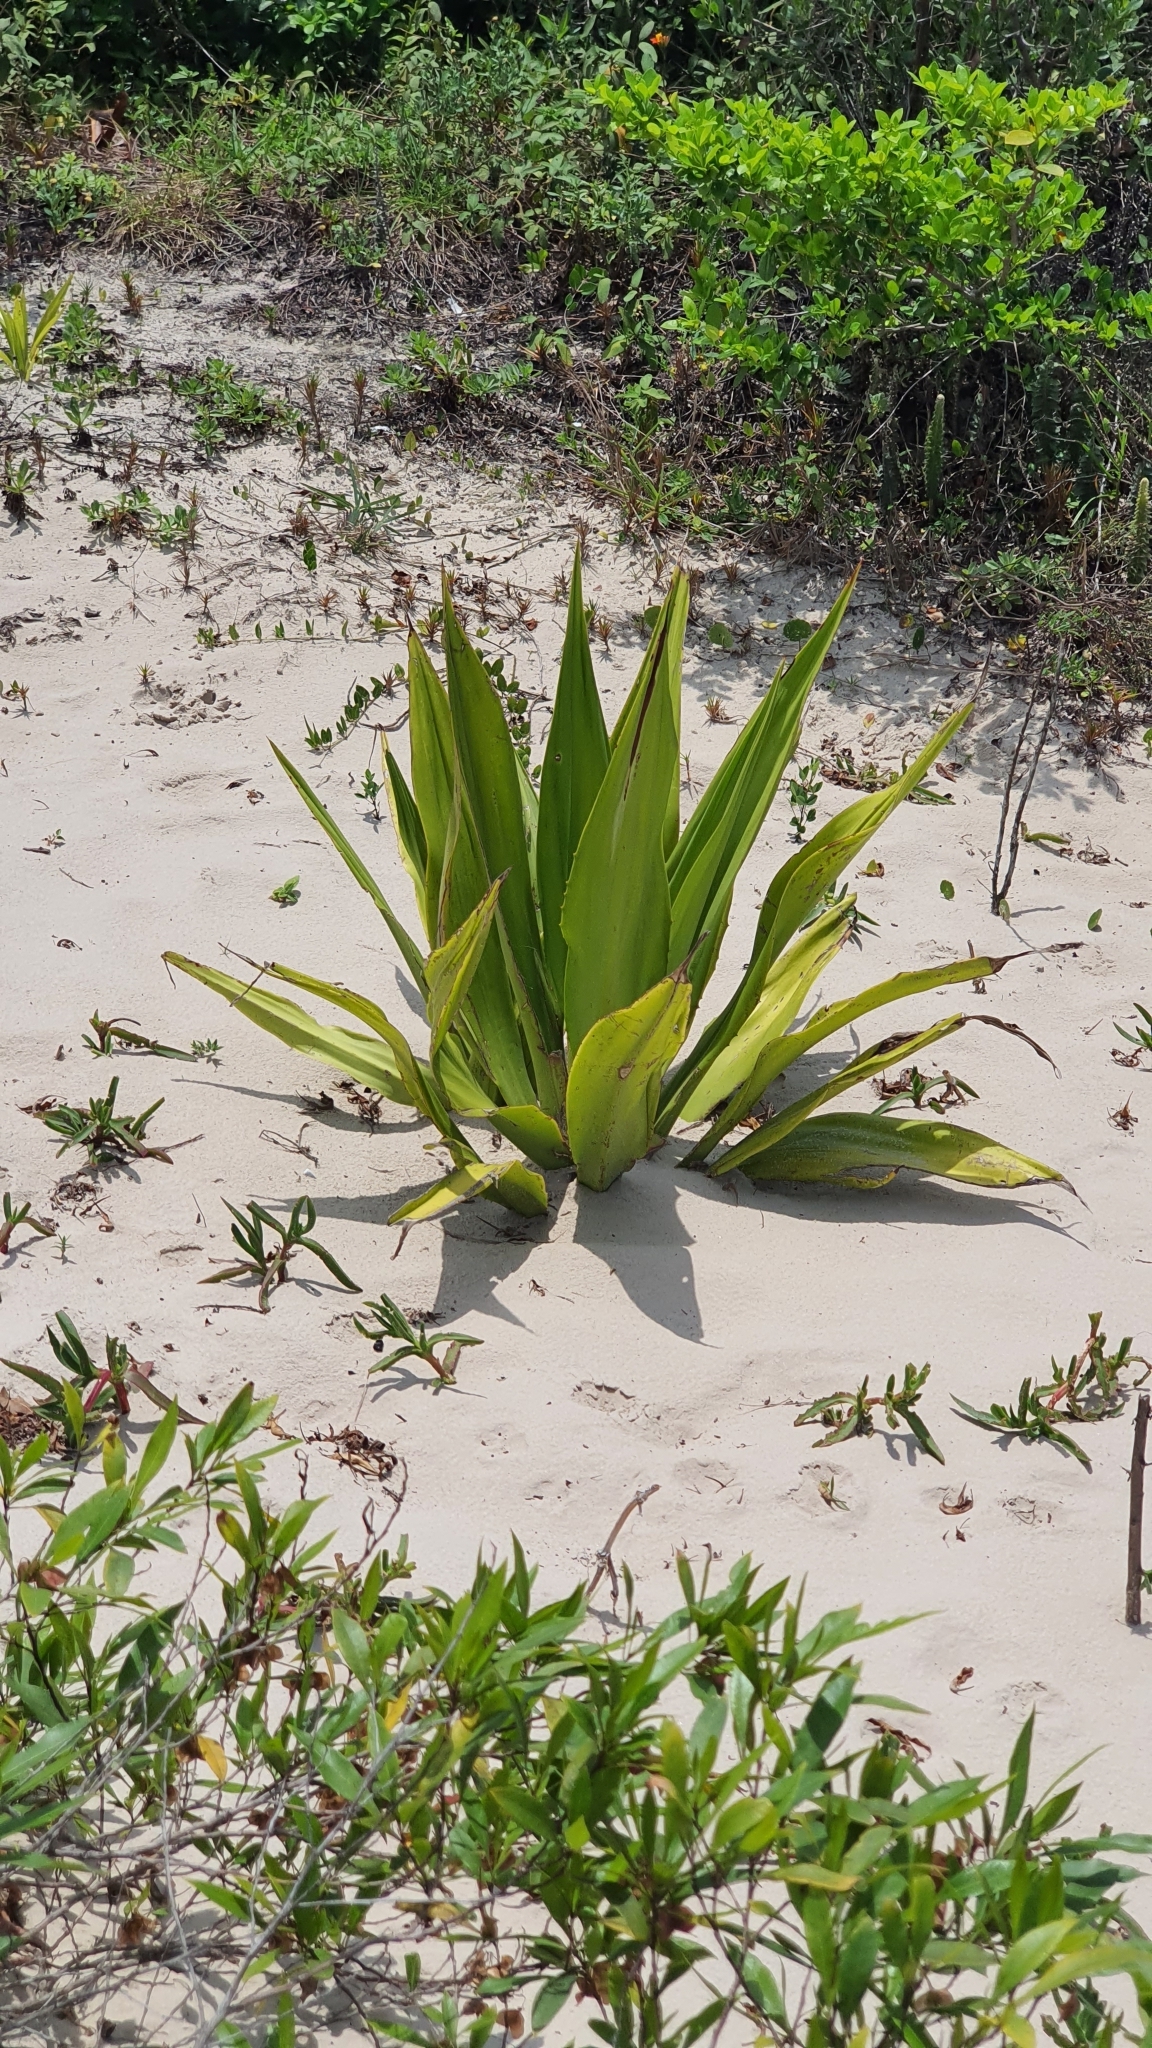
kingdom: Plantae
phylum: Tracheophyta
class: Liliopsida
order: Asparagales
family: Asparagaceae
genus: Furcraea
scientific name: Furcraea foetida
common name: Mauritius hemp
